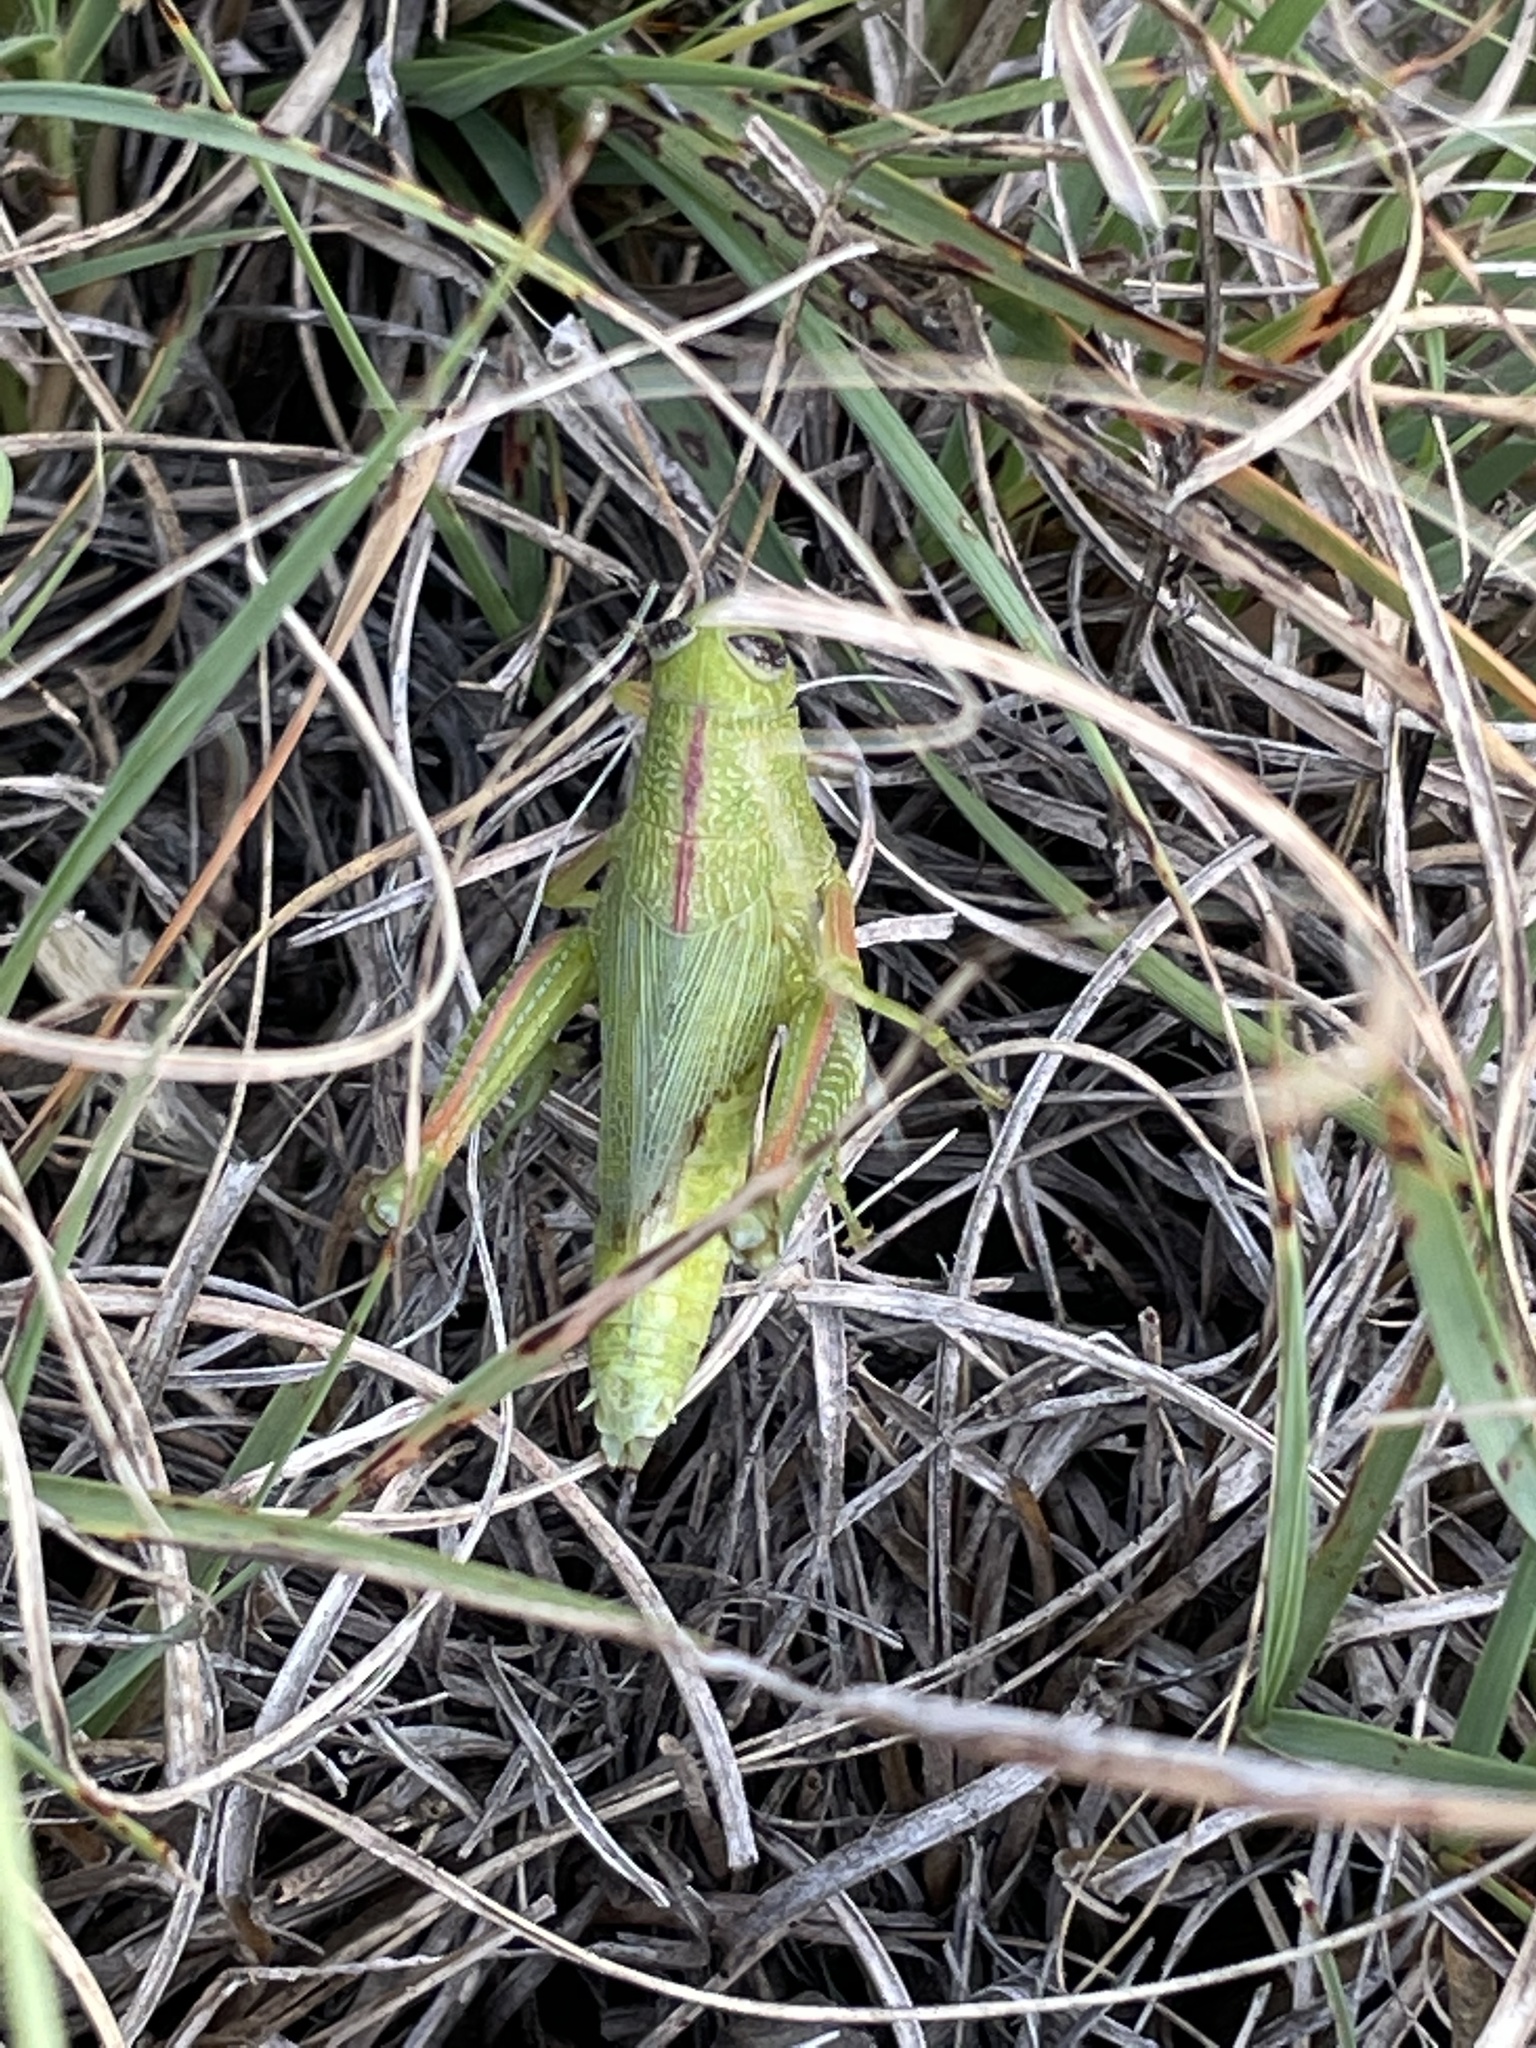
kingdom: Animalia
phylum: Arthropoda
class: Insecta
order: Orthoptera
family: Acrididae
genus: Hesperotettix
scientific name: Hesperotettix speciosus
